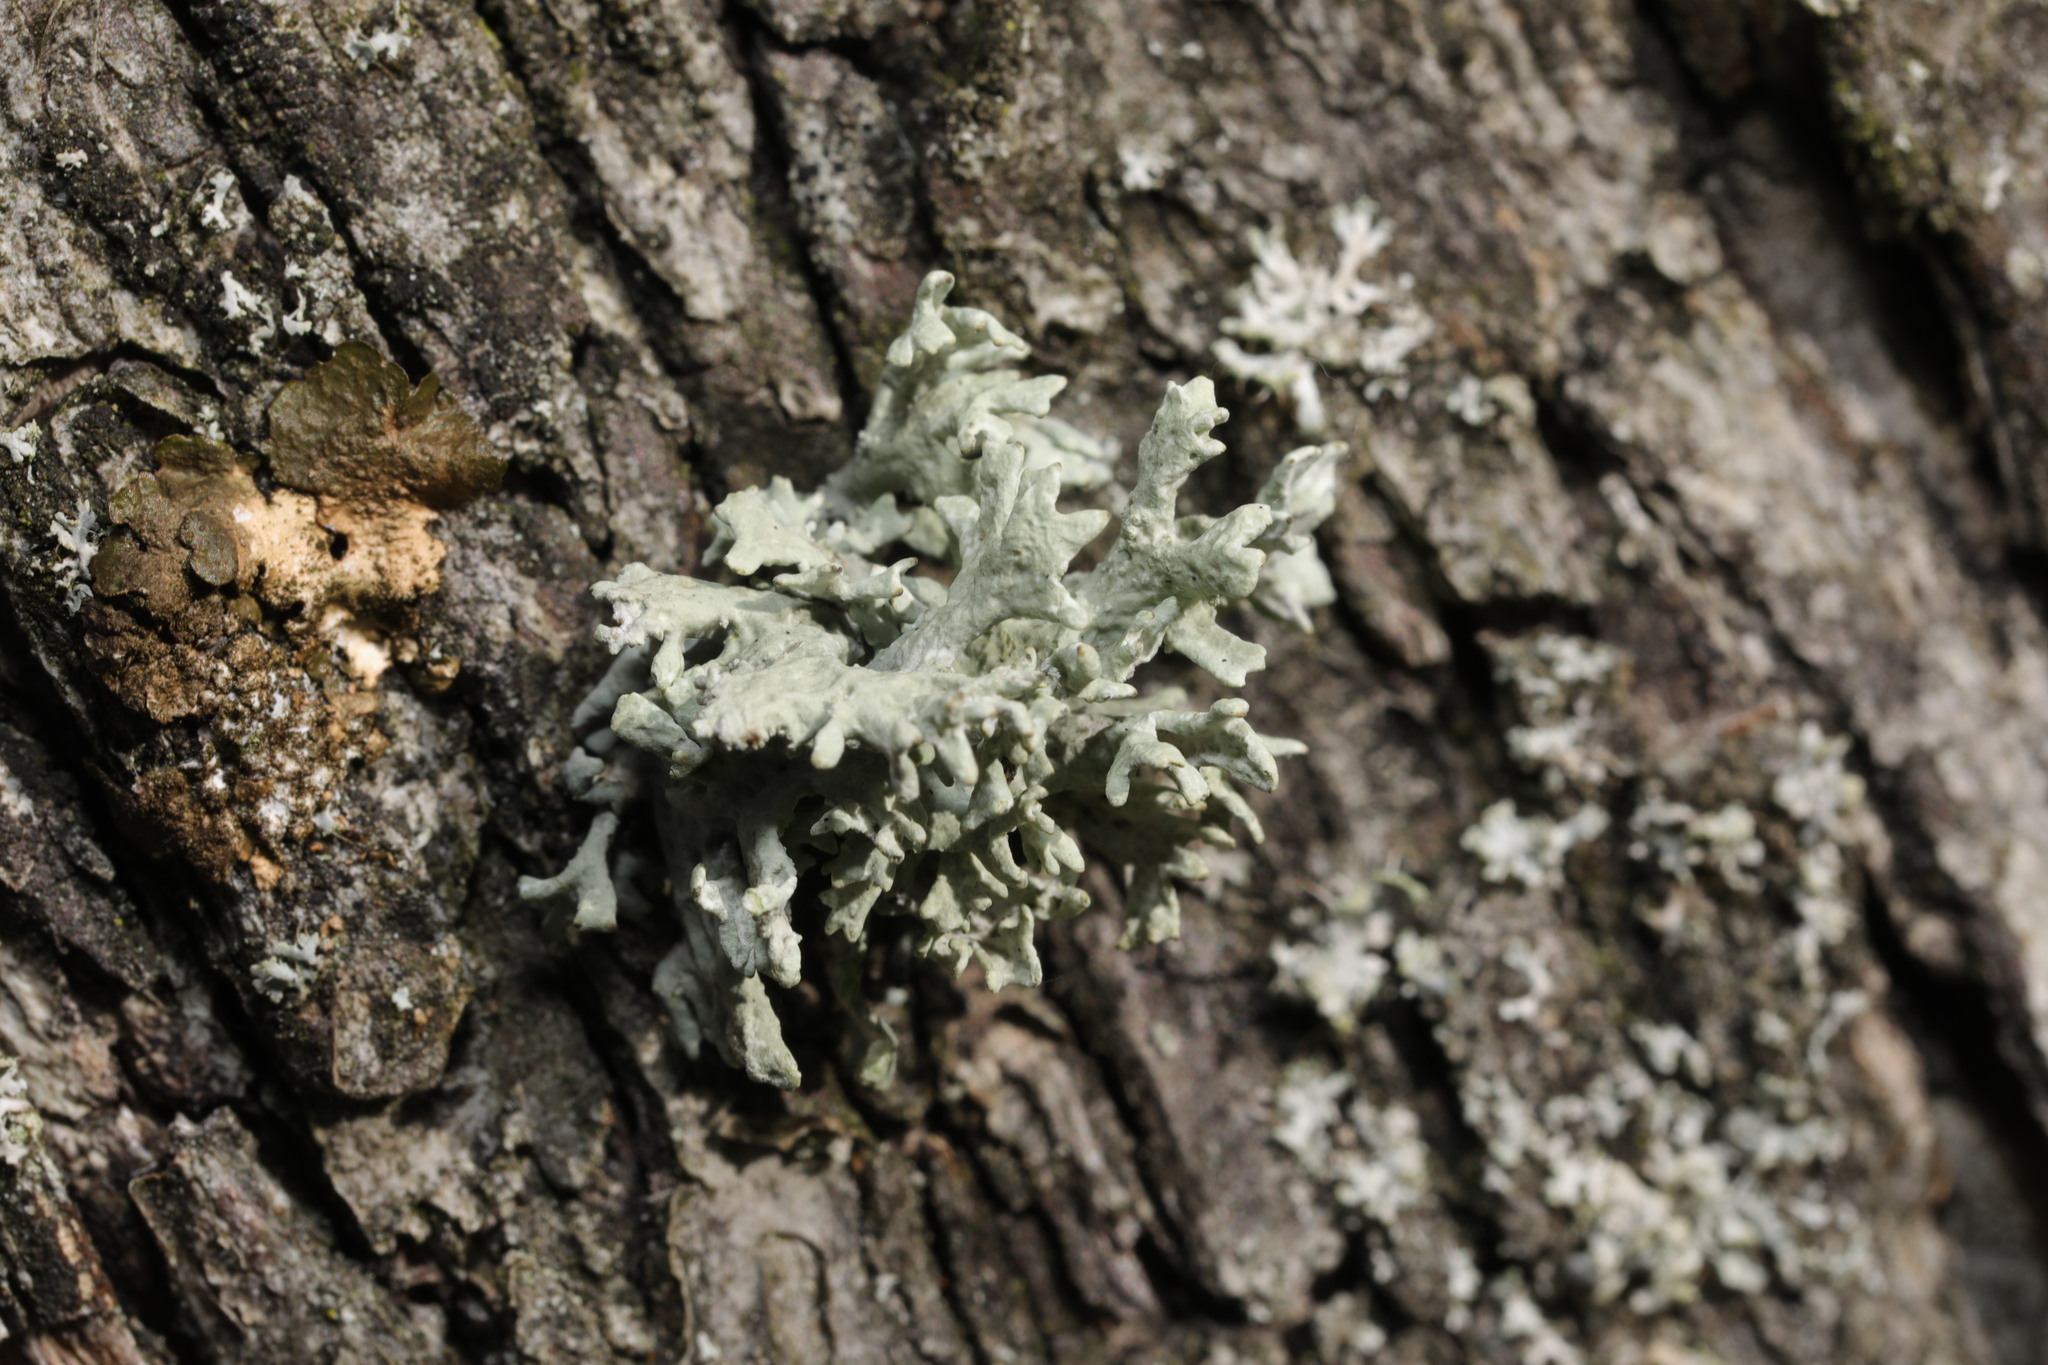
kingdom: Fungi
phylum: Ascomycota
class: Lecanoromycetes
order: Lecanorales
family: Parmeliaceae
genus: Evernia
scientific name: Evernia prunastri
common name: Oak moss
